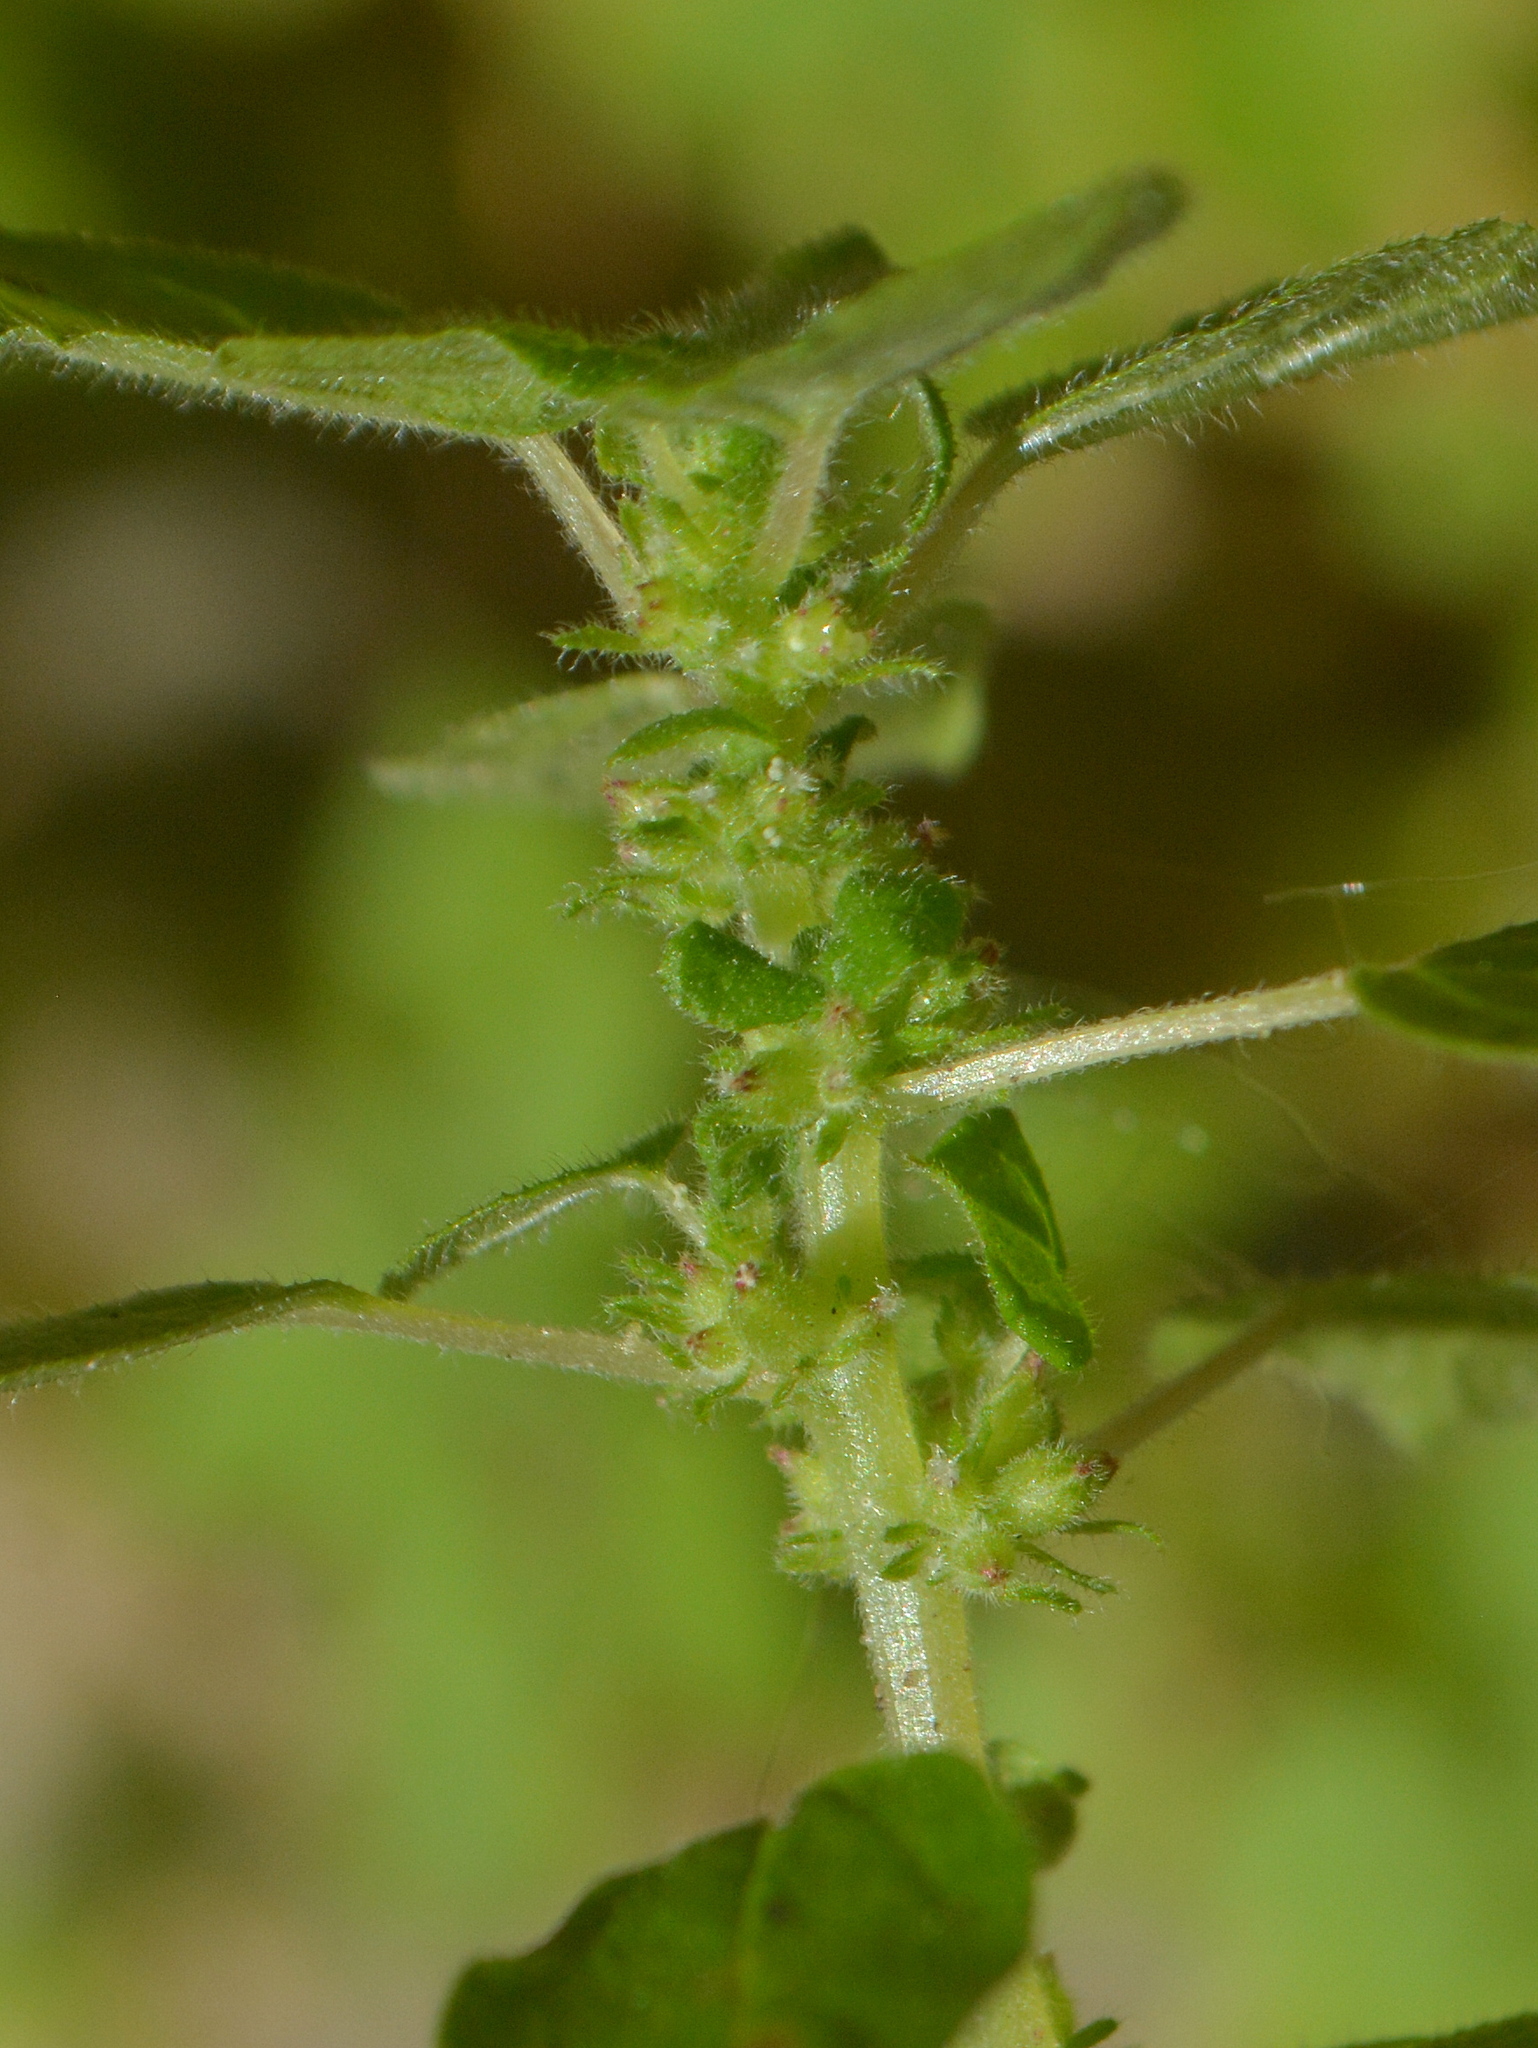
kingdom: Plantae
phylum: Tracheophyta
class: Magnoliopsida
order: Rosales
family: Urticaceae
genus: Parietaria
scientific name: Parietaria debilis
